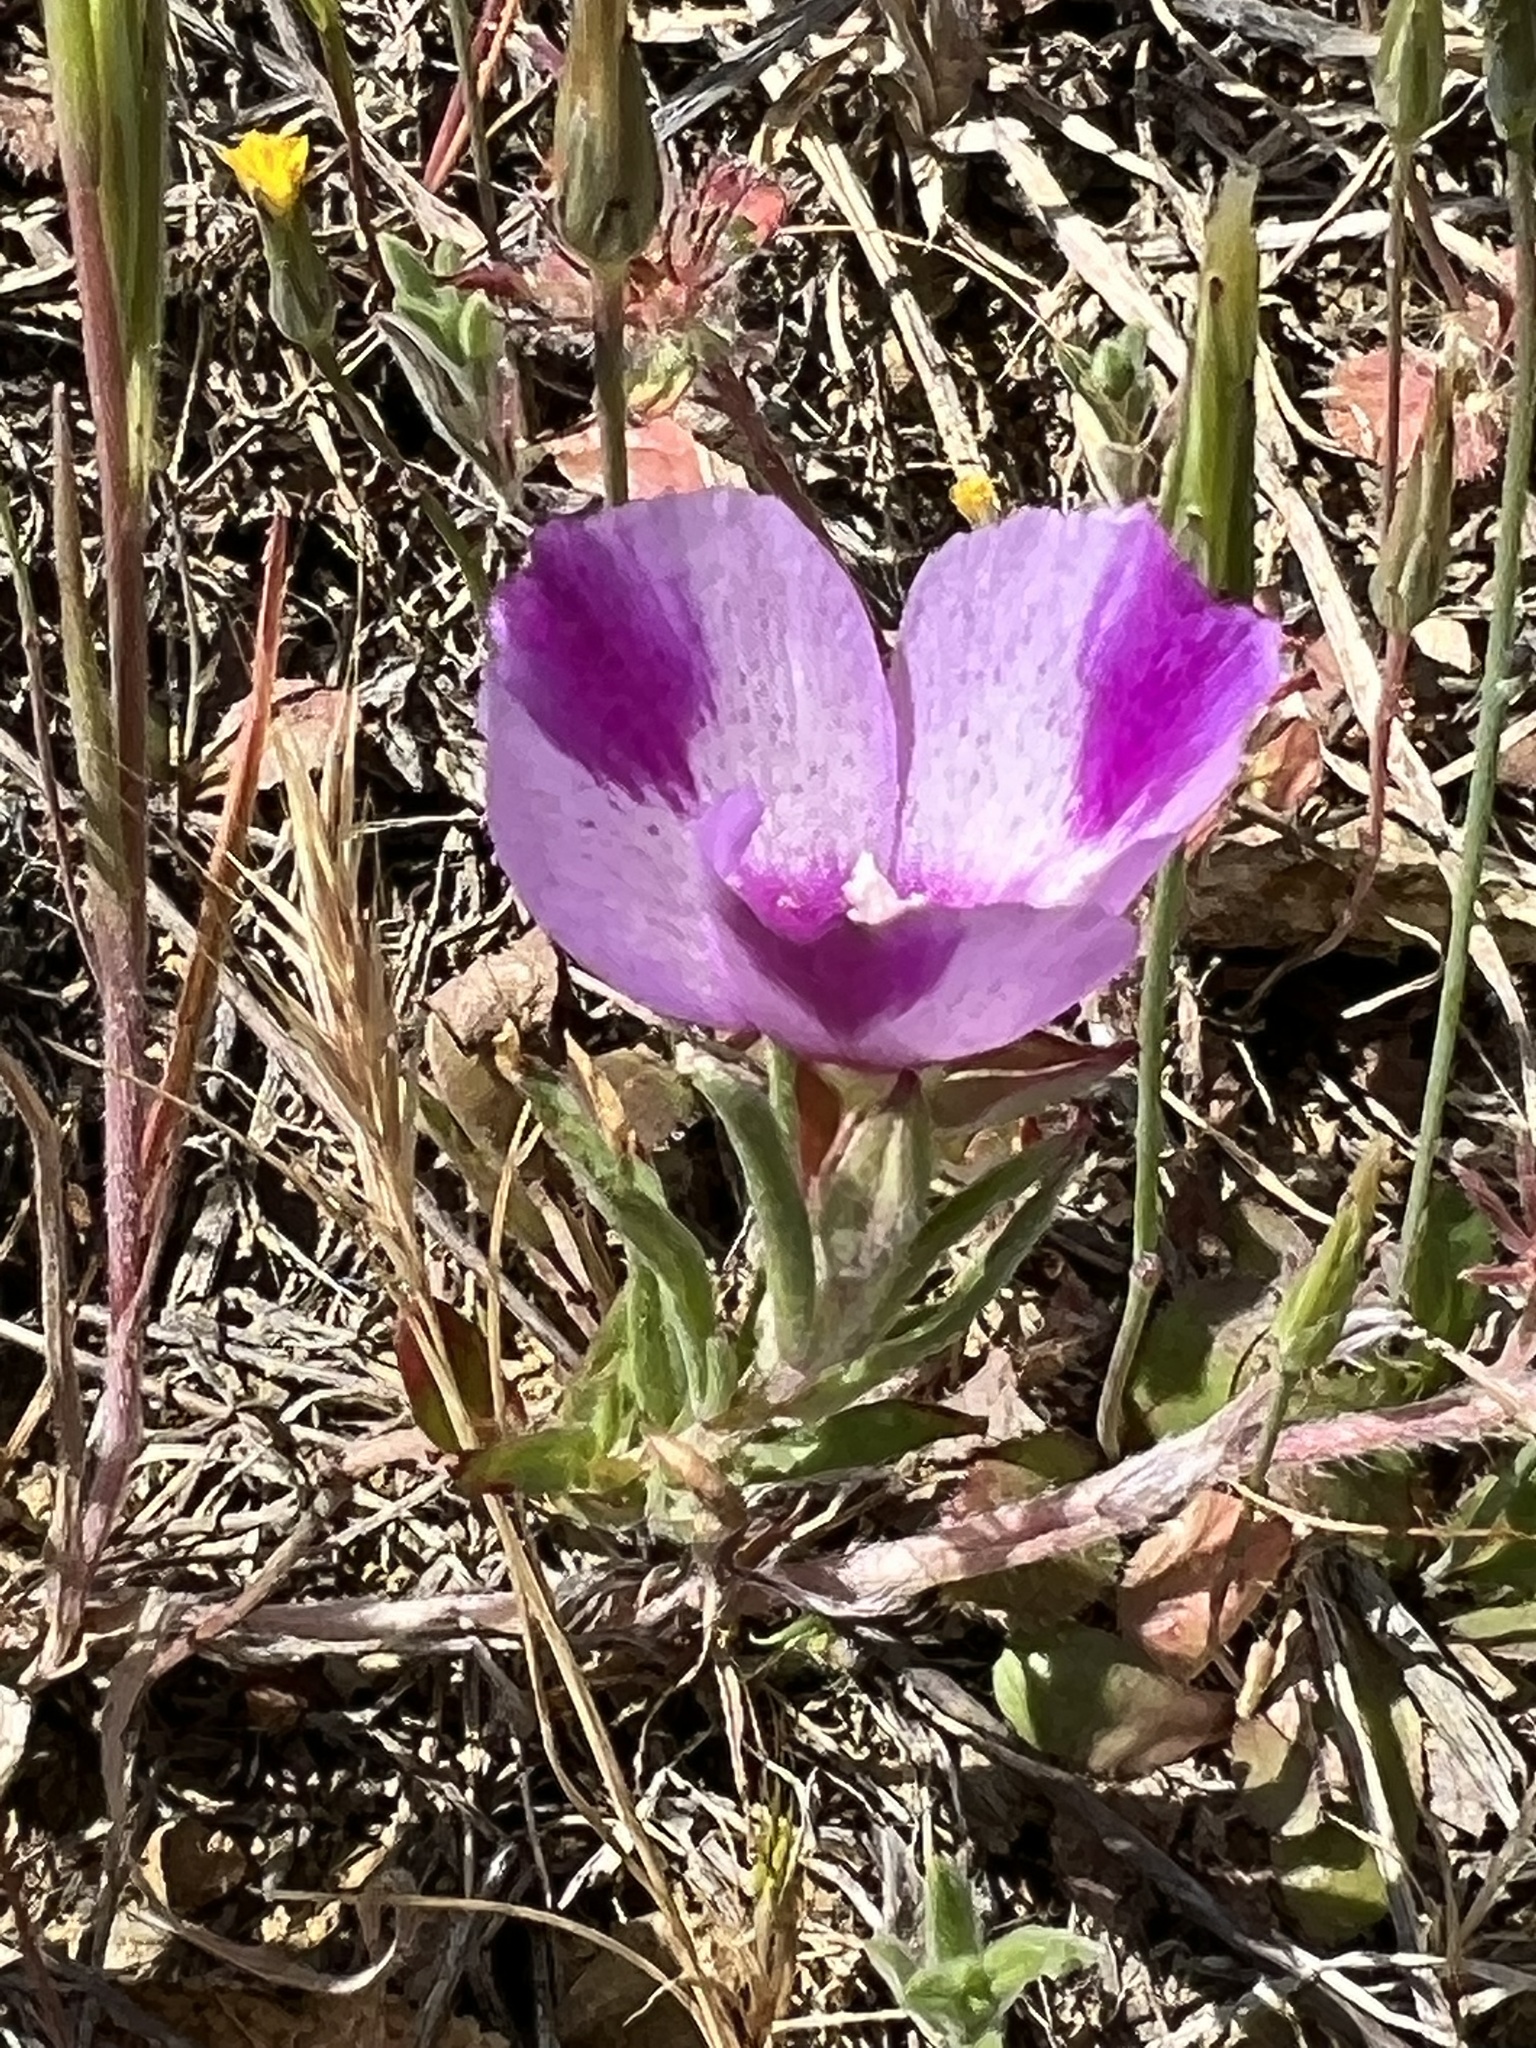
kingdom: Plantae
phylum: Tracheophyta
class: Magnoliopsida
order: Myrtales
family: Onagraceae
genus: Clarkia
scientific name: Clarkia purpurea
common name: Purple clarkia
